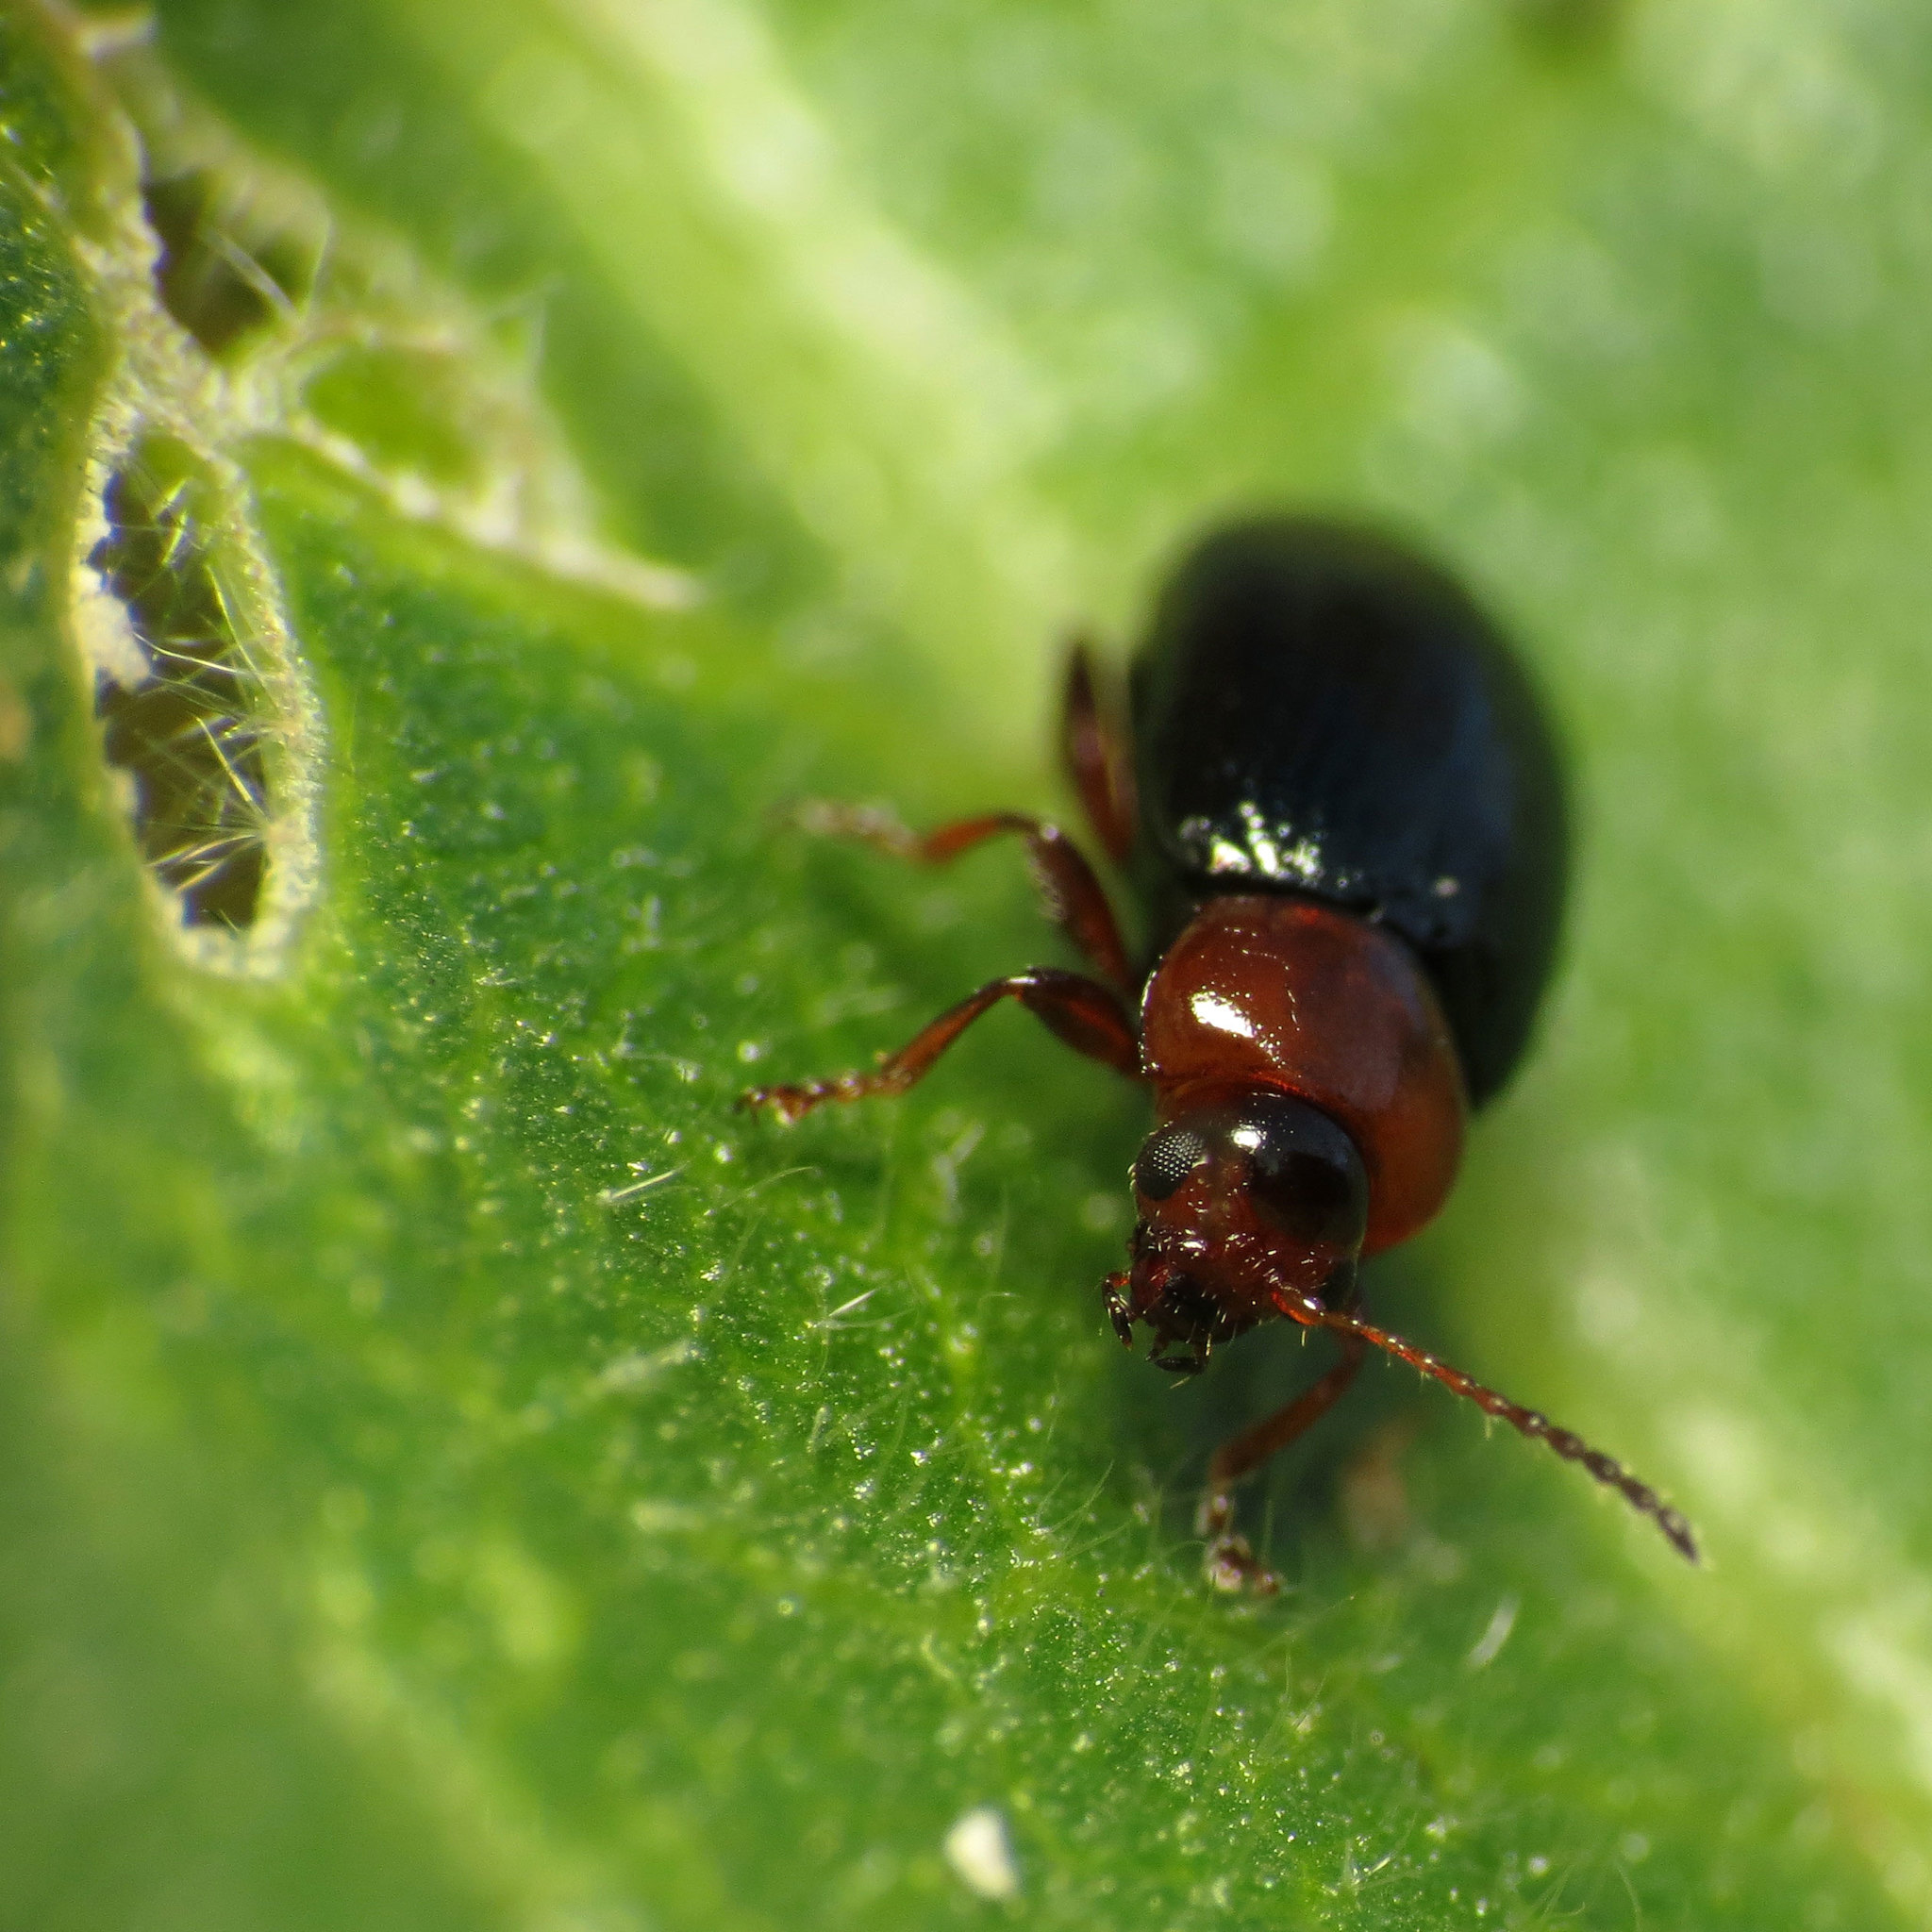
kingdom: Animalia
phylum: Arthropoda
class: Insecta
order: Coleoptera
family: Chrysomelidae
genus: Podagrica
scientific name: Podagrica malvae
